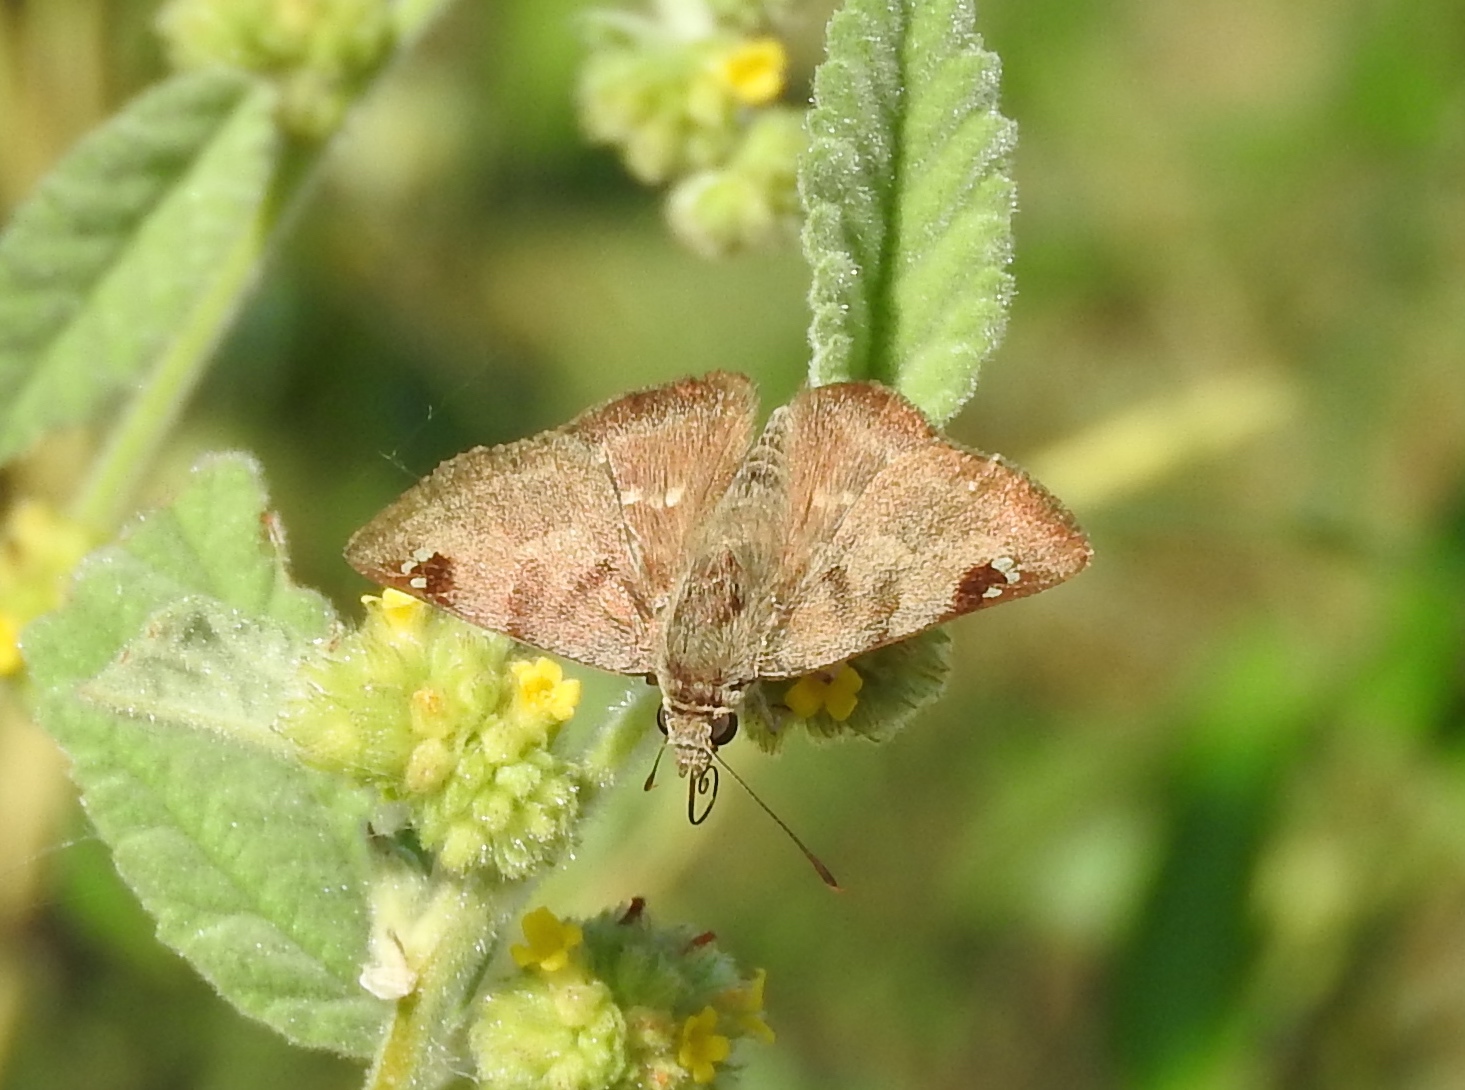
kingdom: Animalia
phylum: Arthropoda
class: Insecta
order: Lepidoptera
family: Hesperiidae
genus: Arteurotia
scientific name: Arteurotia tractipennis
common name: Starred skipper
